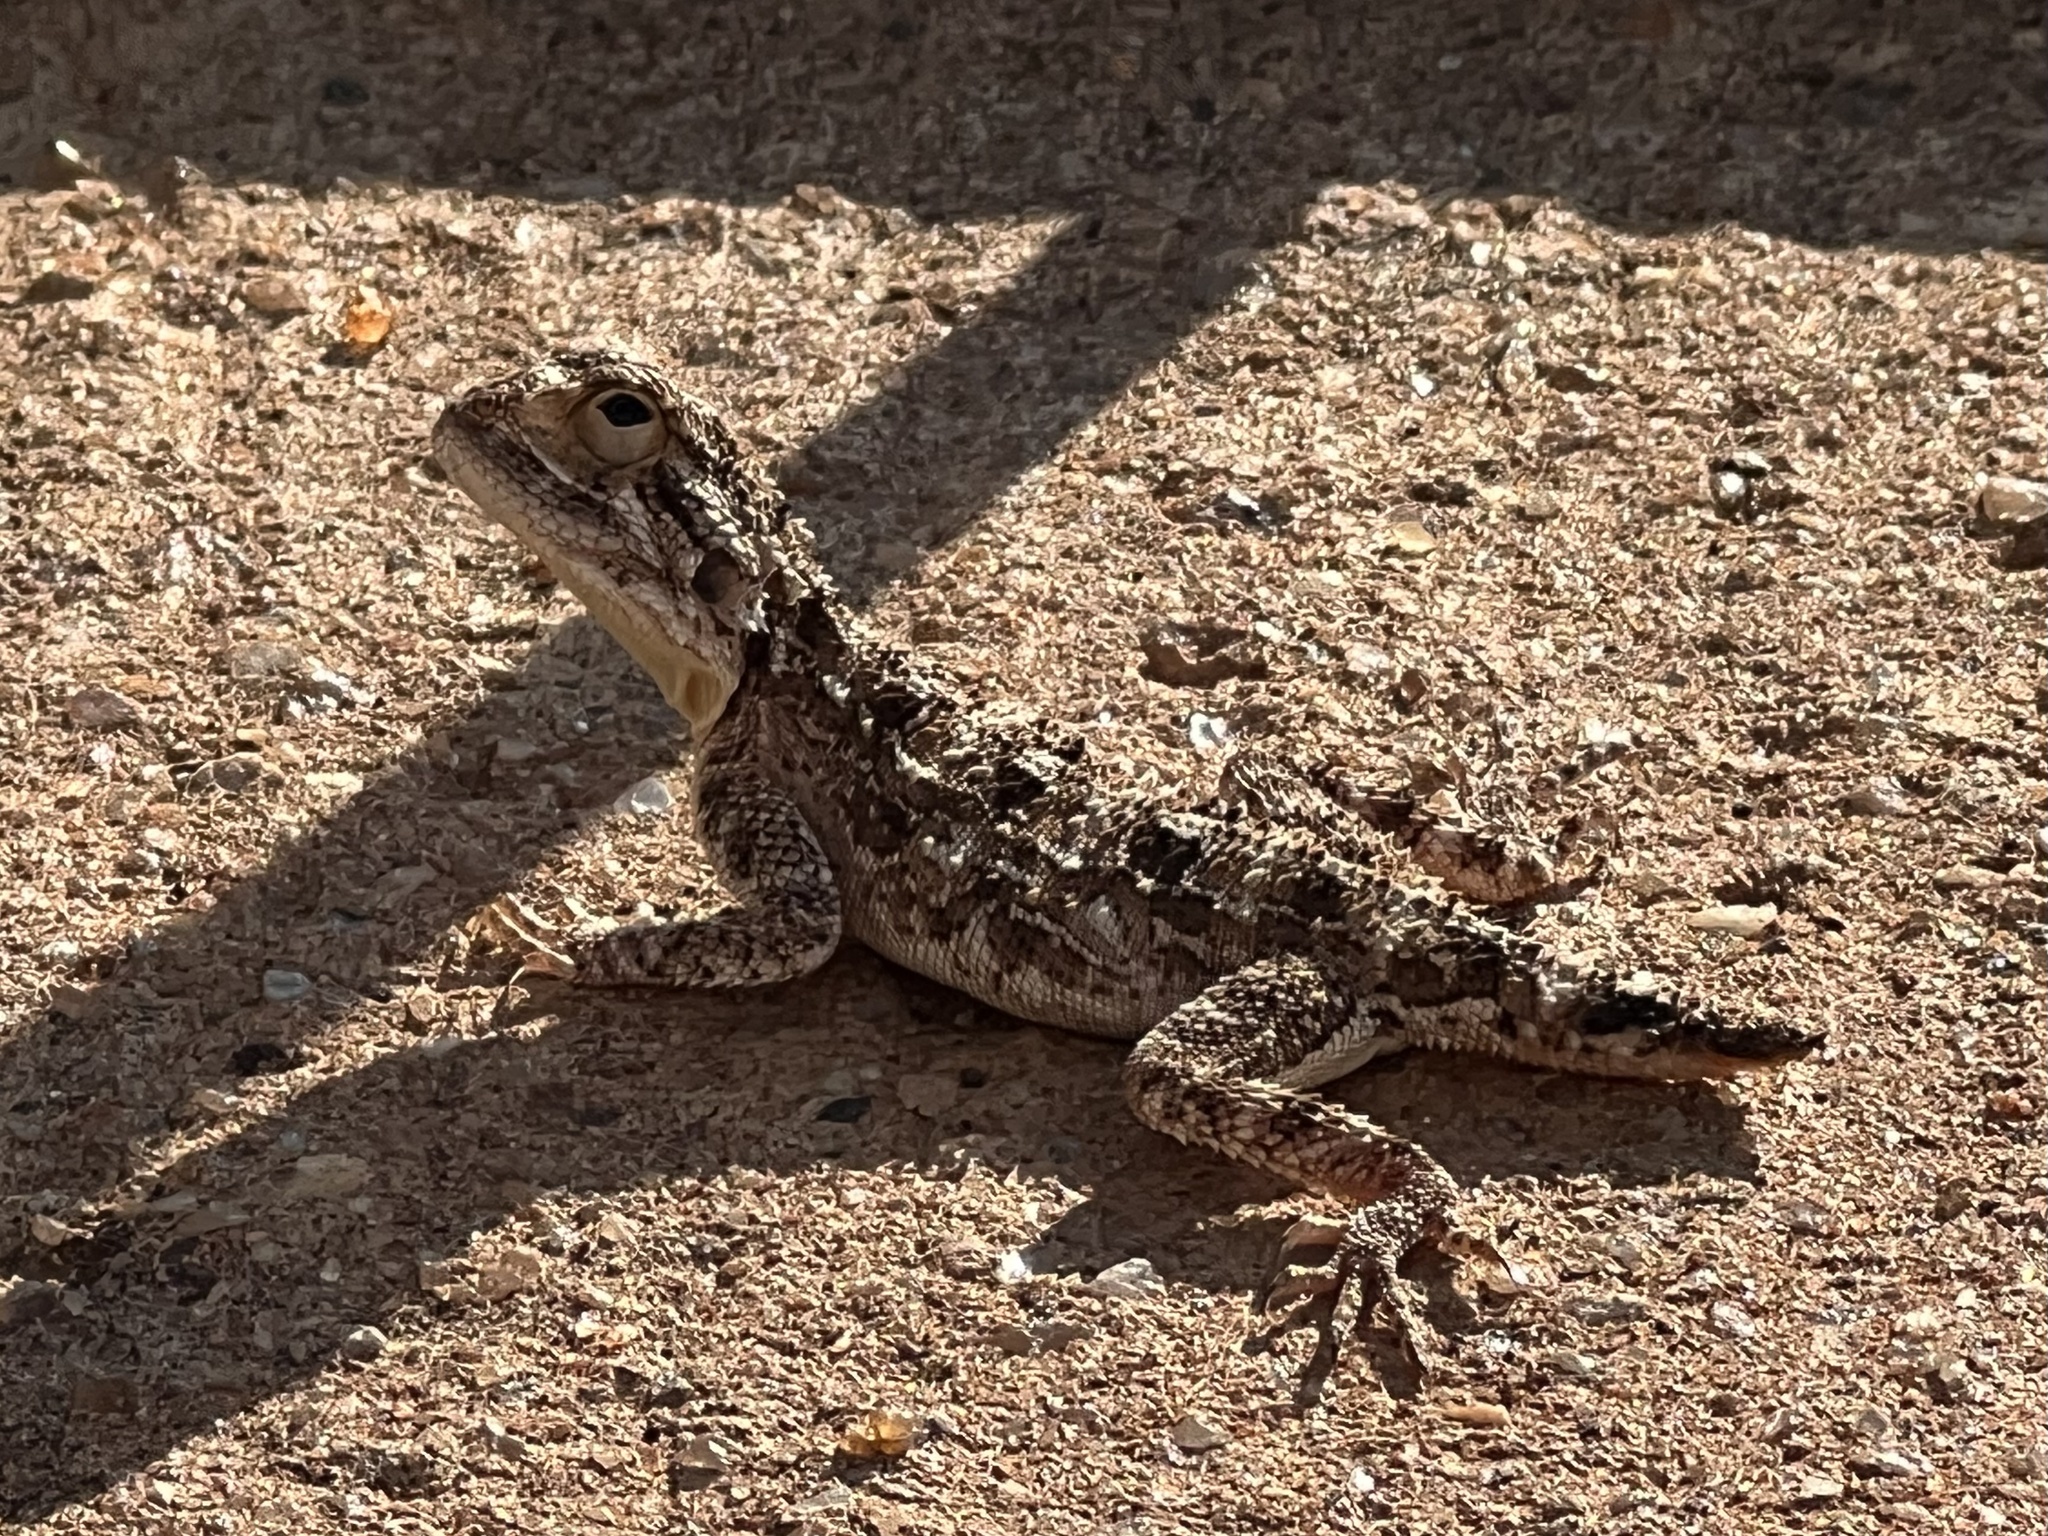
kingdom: Animalia
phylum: Chordata
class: Squamata
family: Agamidae
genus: Agama
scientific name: Agama aculeata
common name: Common ground agama
